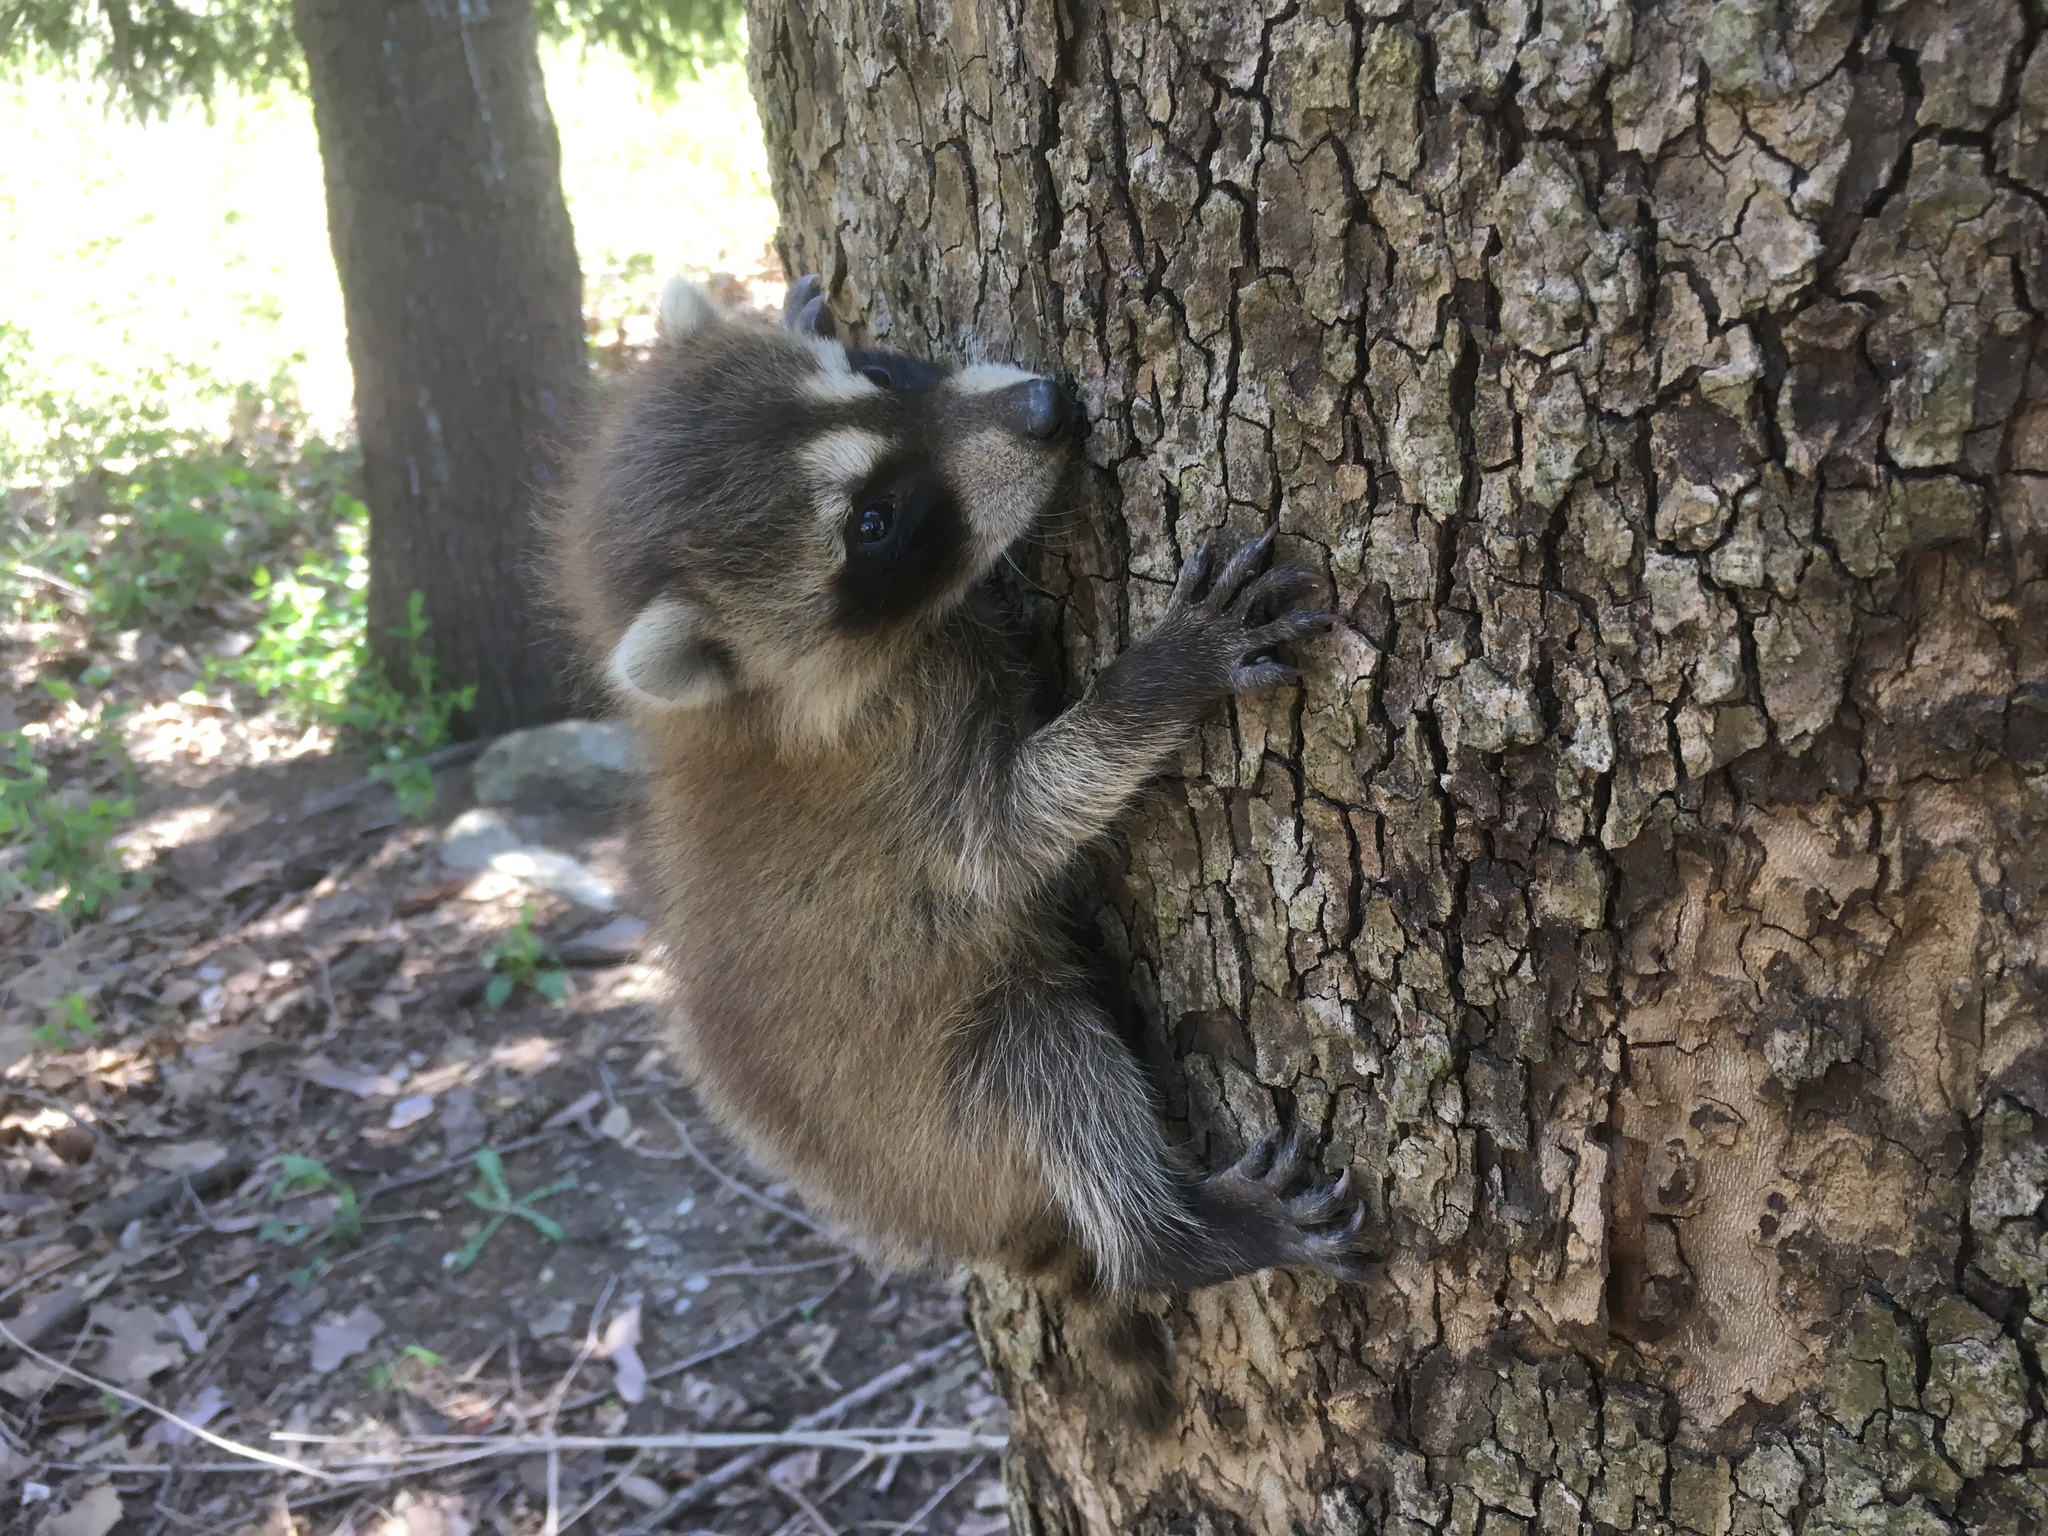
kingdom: Animalia
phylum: Chordata
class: Mammalia
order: Carnivora
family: Procyonidae
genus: Procyon
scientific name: Procyon lotor
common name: Raccoon
